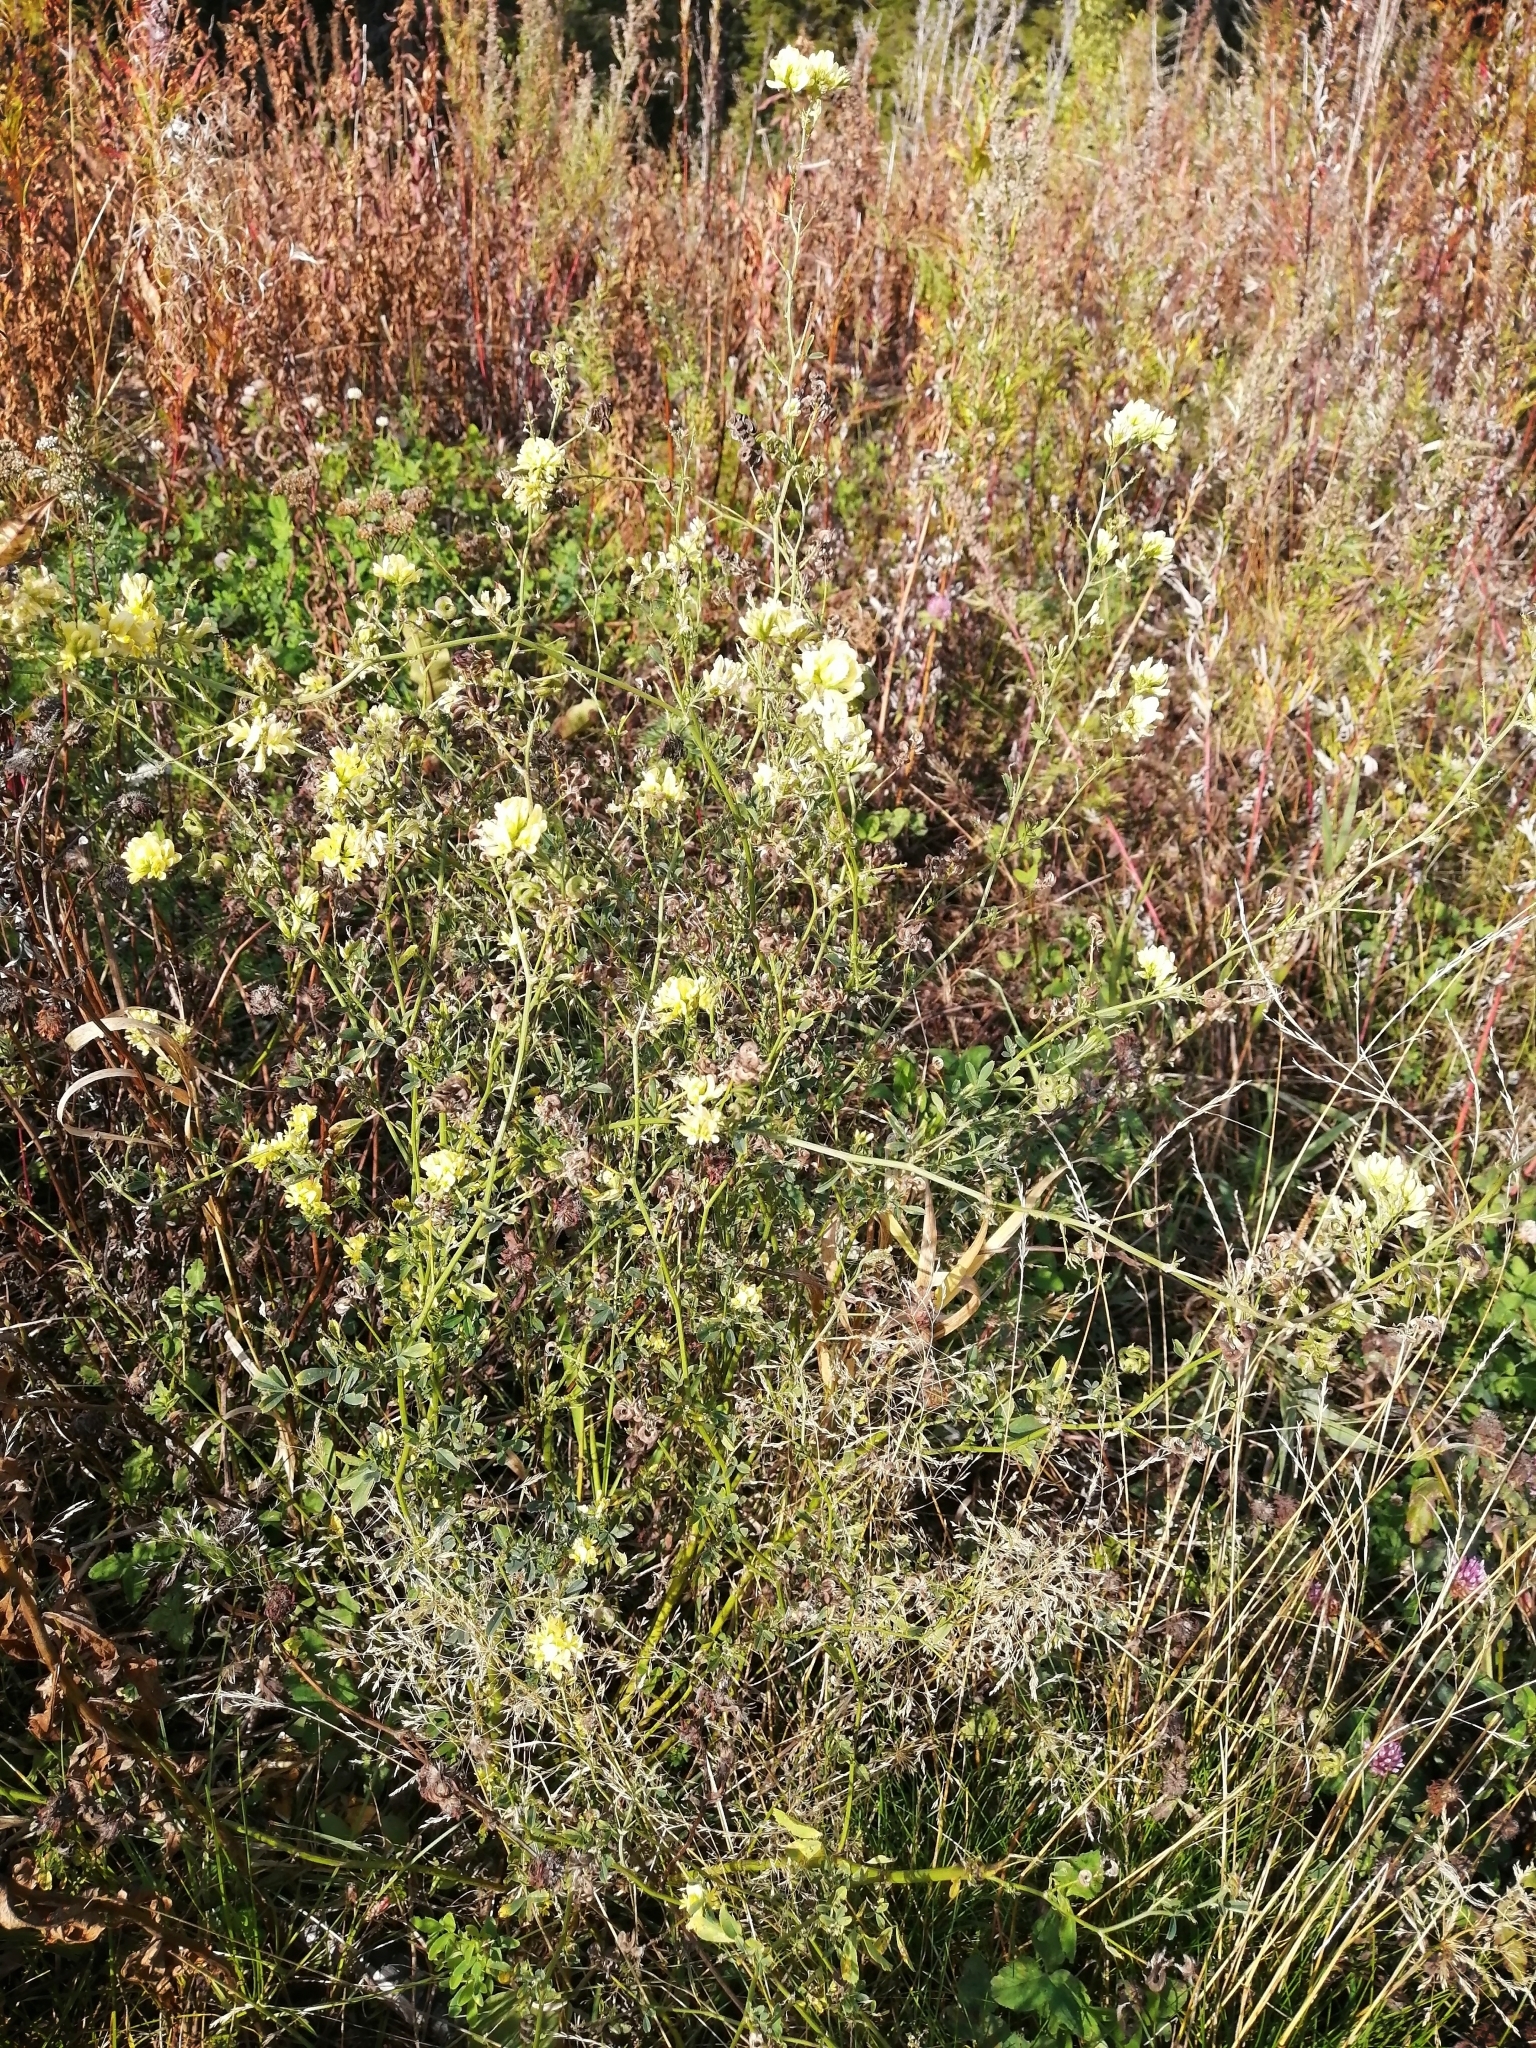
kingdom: Plantae
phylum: Tracheophyta
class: Magnoliopsida
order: Fabales
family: Fabaceae
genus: Medicago
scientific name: Medicago varia
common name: Sand lucerne
